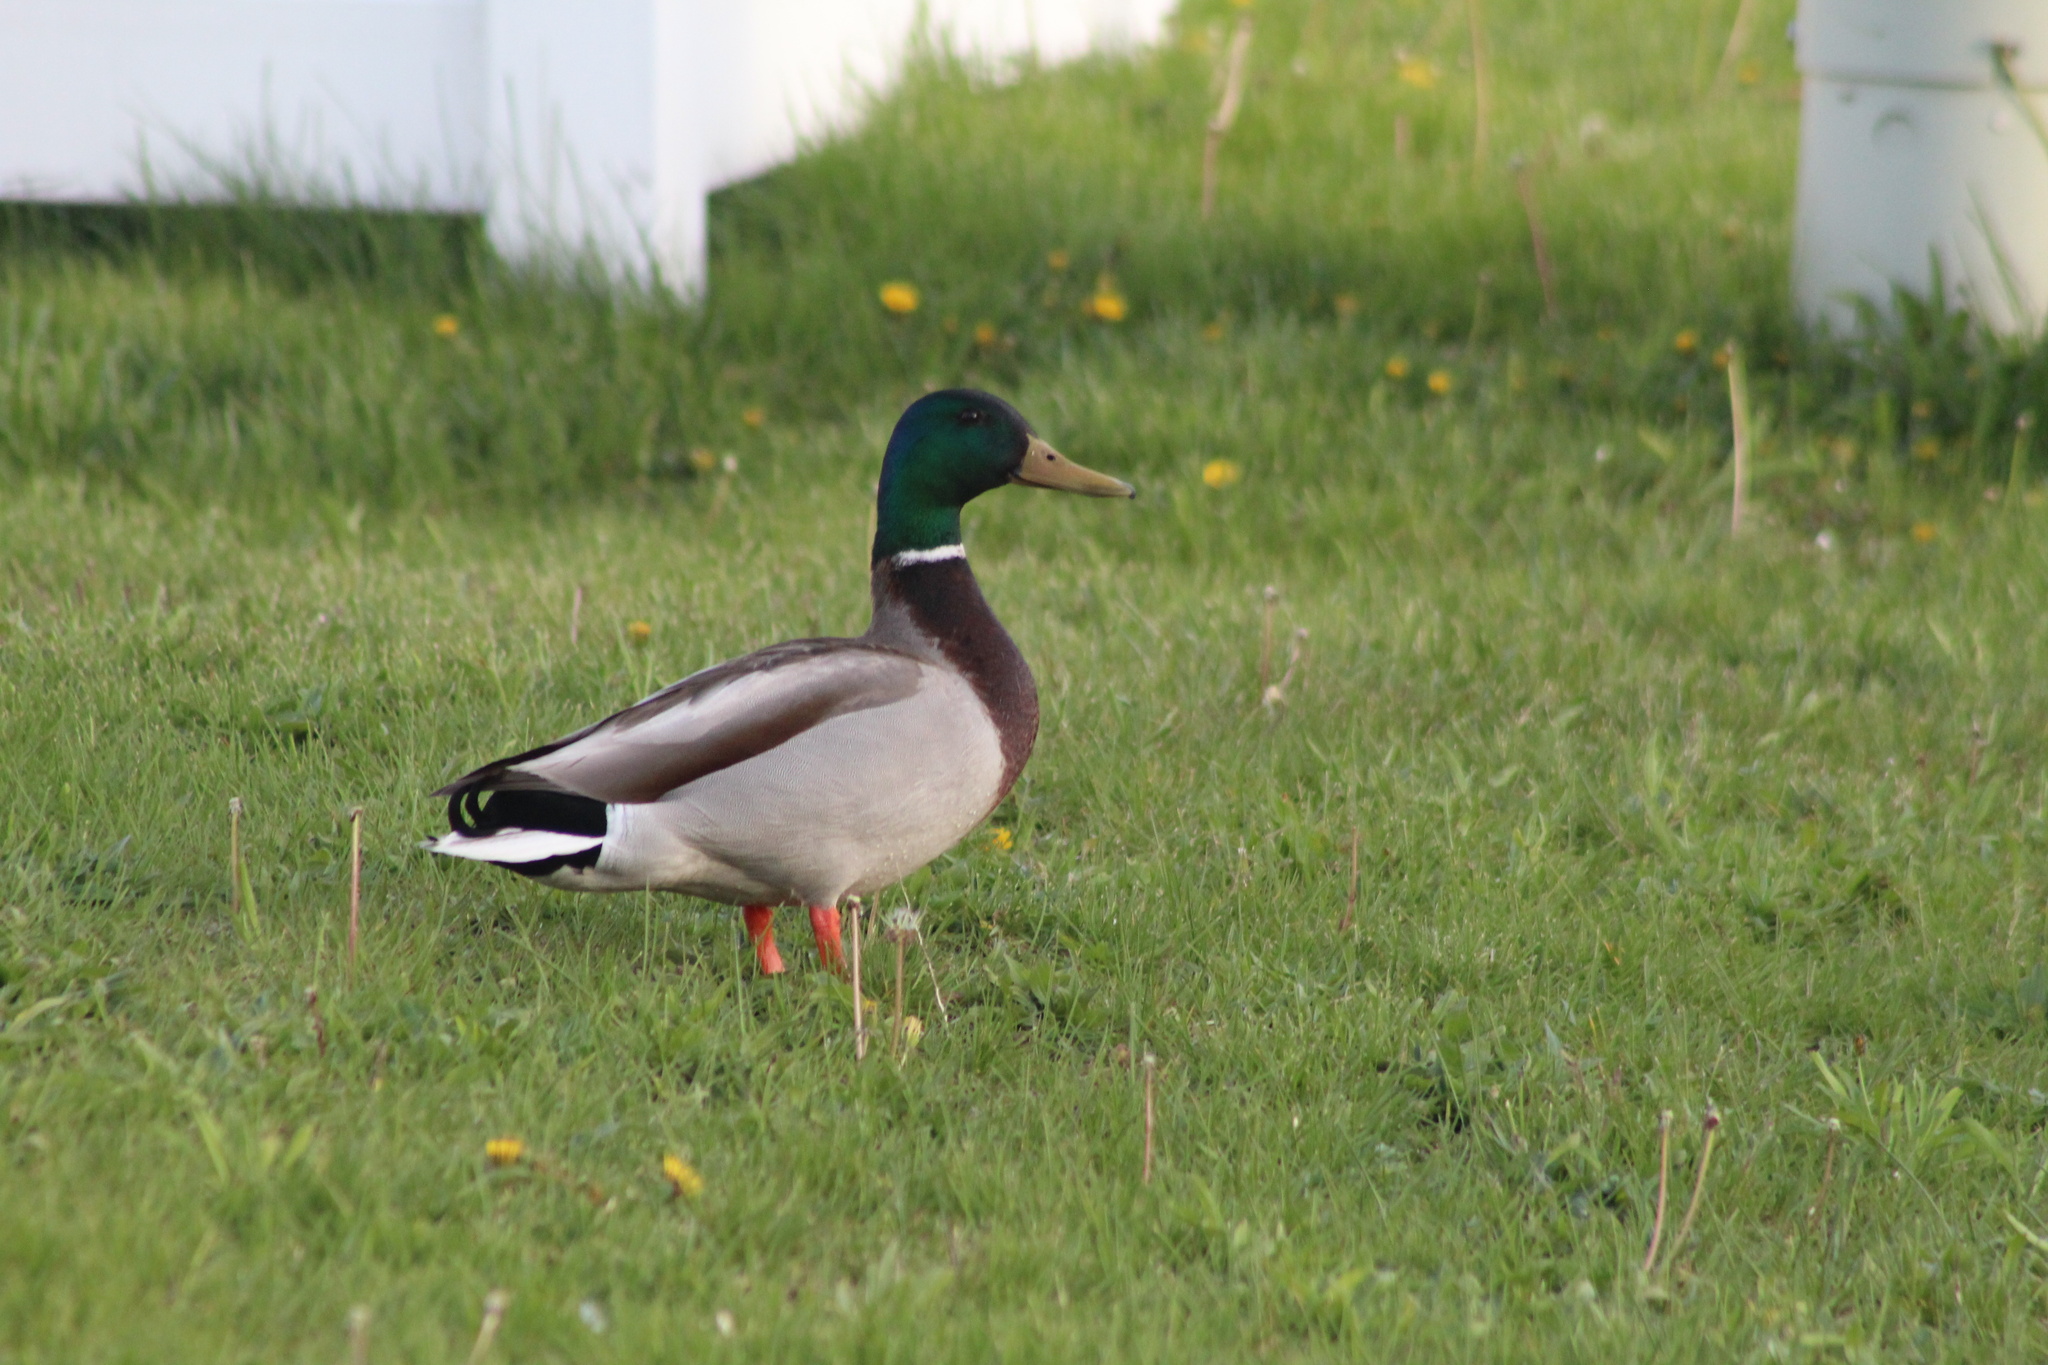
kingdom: Animalia
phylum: Chordata
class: Aves
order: Anseriformes
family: Anatidae
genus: Anas
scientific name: Anas platyrhynchos
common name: Mallard
